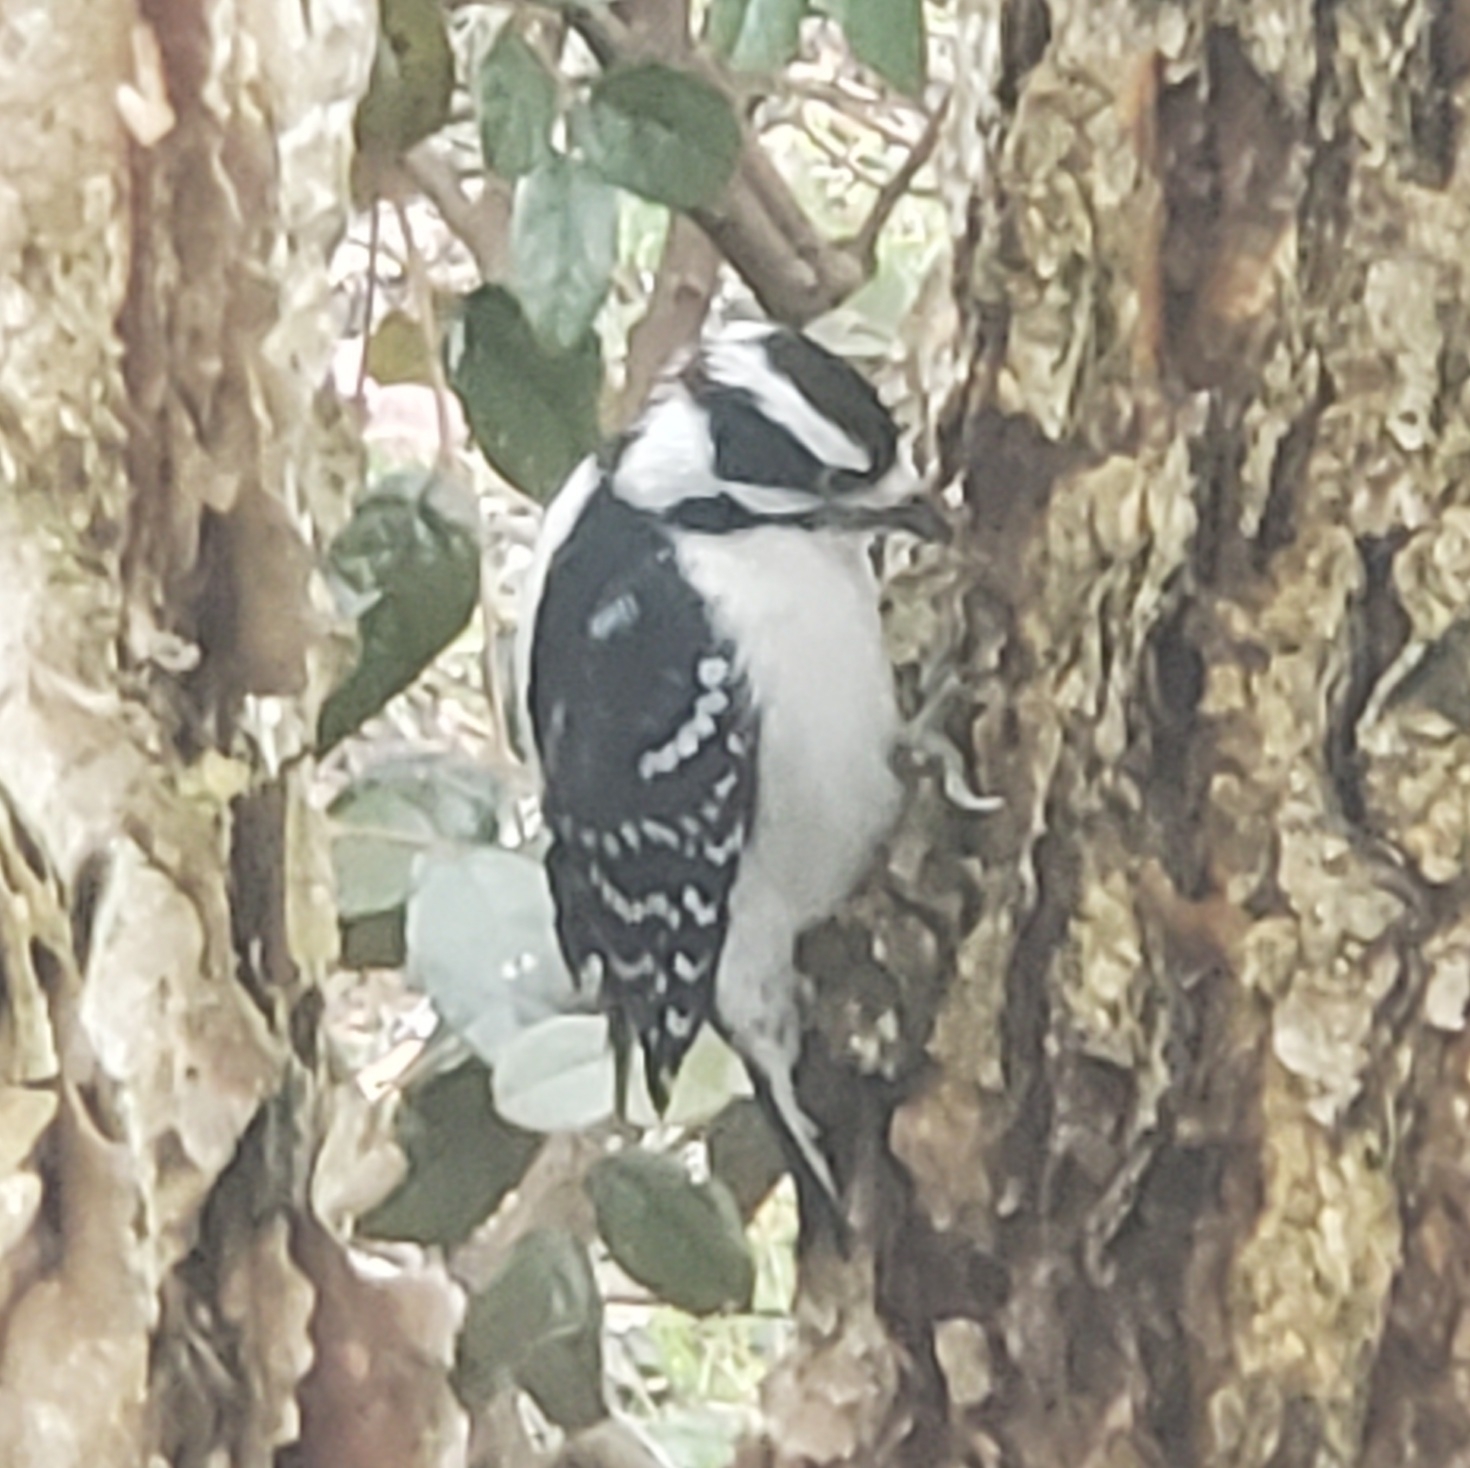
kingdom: Animalia
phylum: Chordata
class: Aves
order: Piciformes
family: Picidae
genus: Dryobates
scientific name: Dryobates pubescens
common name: Downy woodpecker
